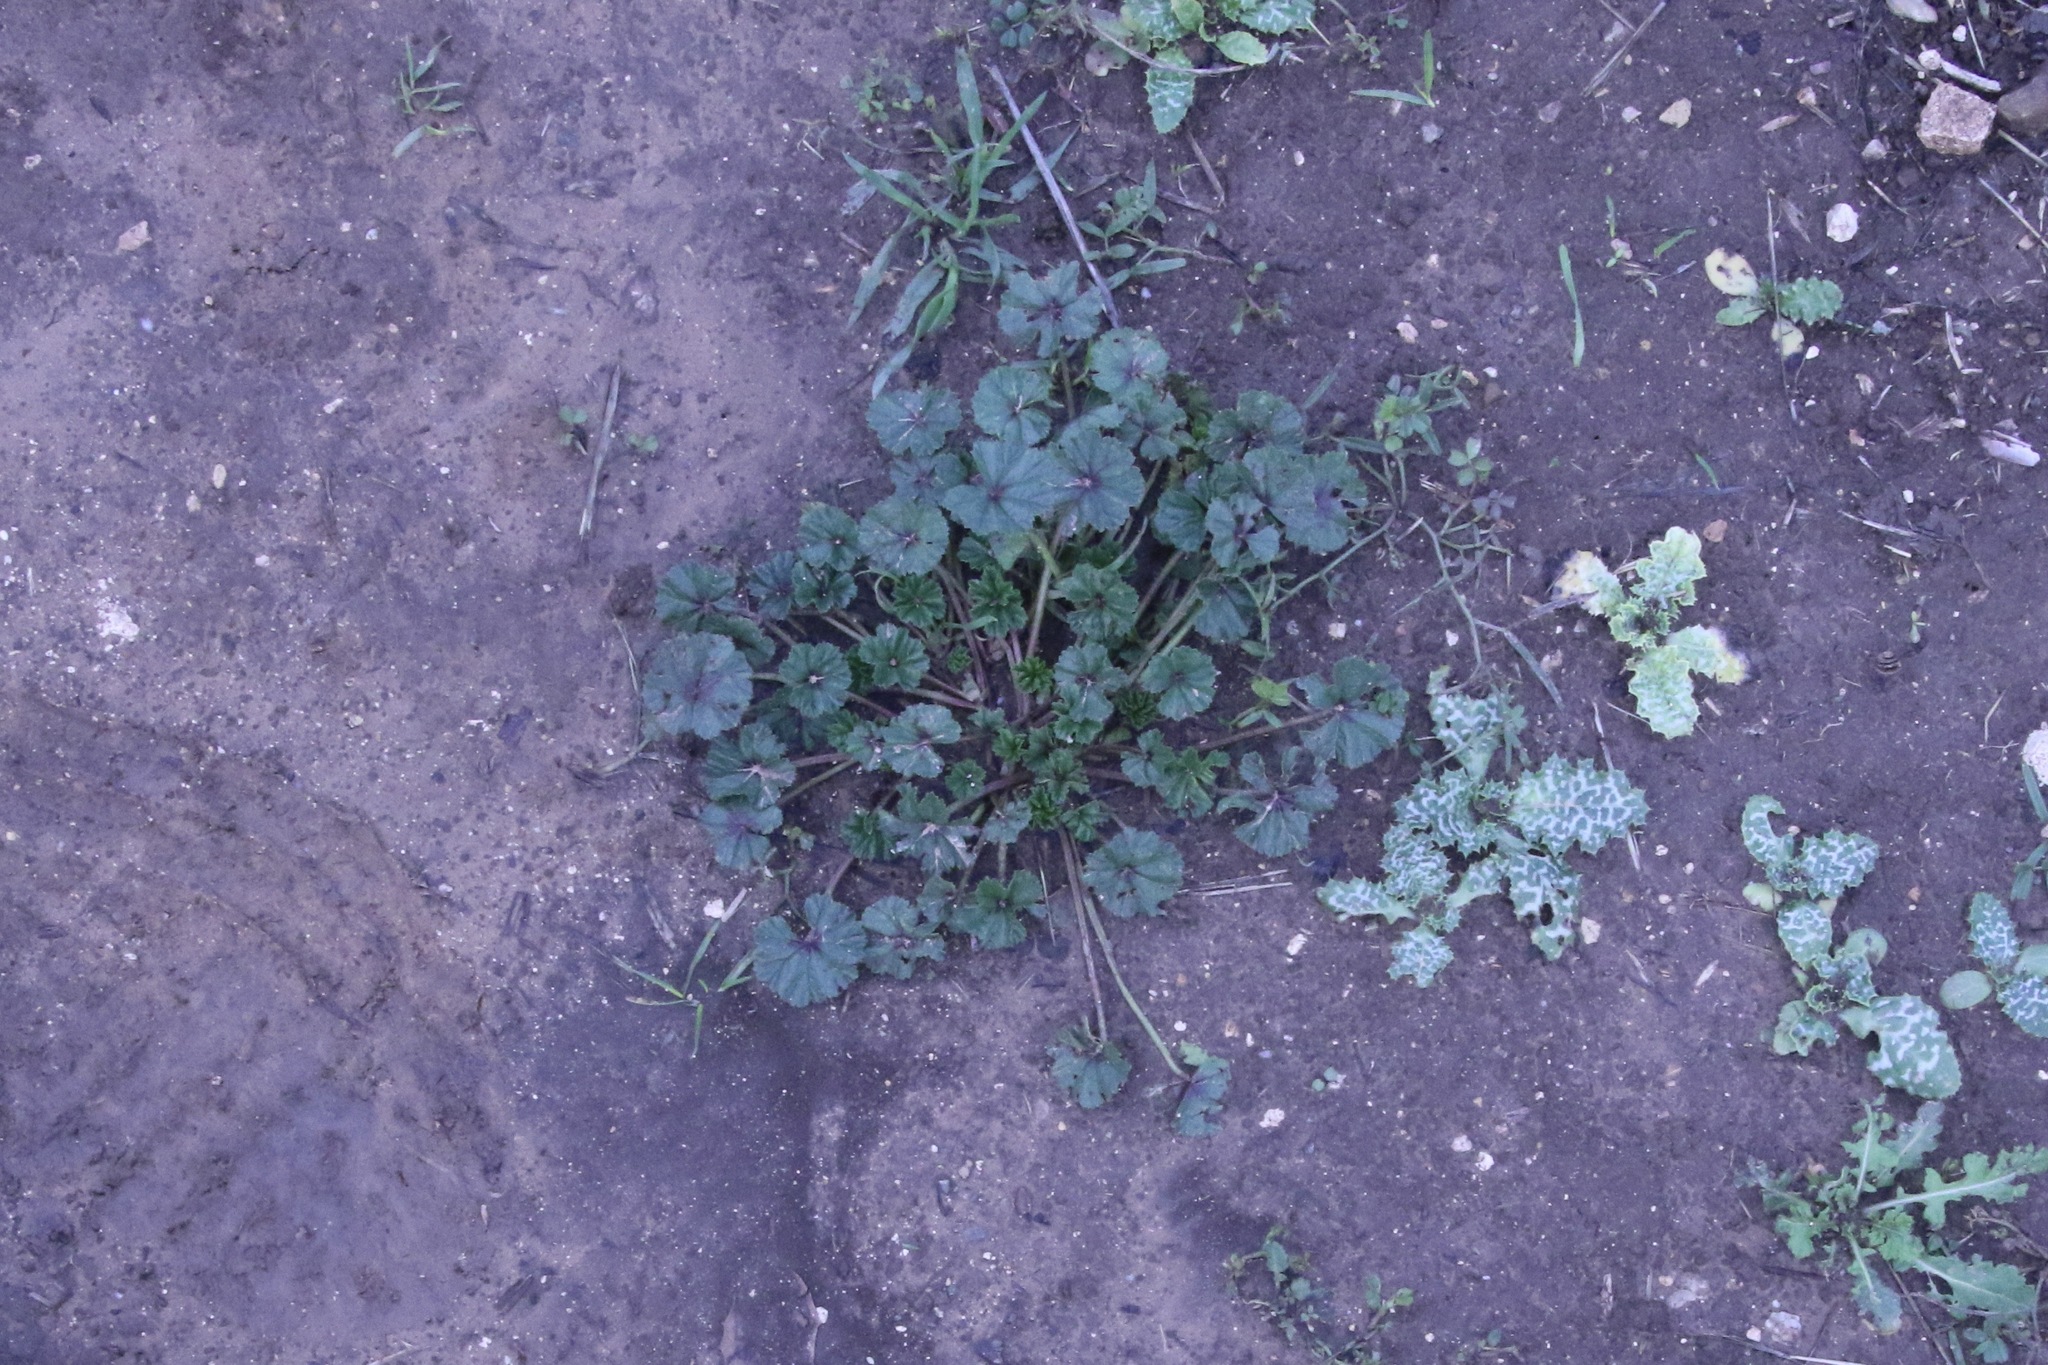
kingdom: Plantae
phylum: Tracheophyta
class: Magnoliopsida
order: Malvales
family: Malvaceae
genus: Malva
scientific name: Malva
